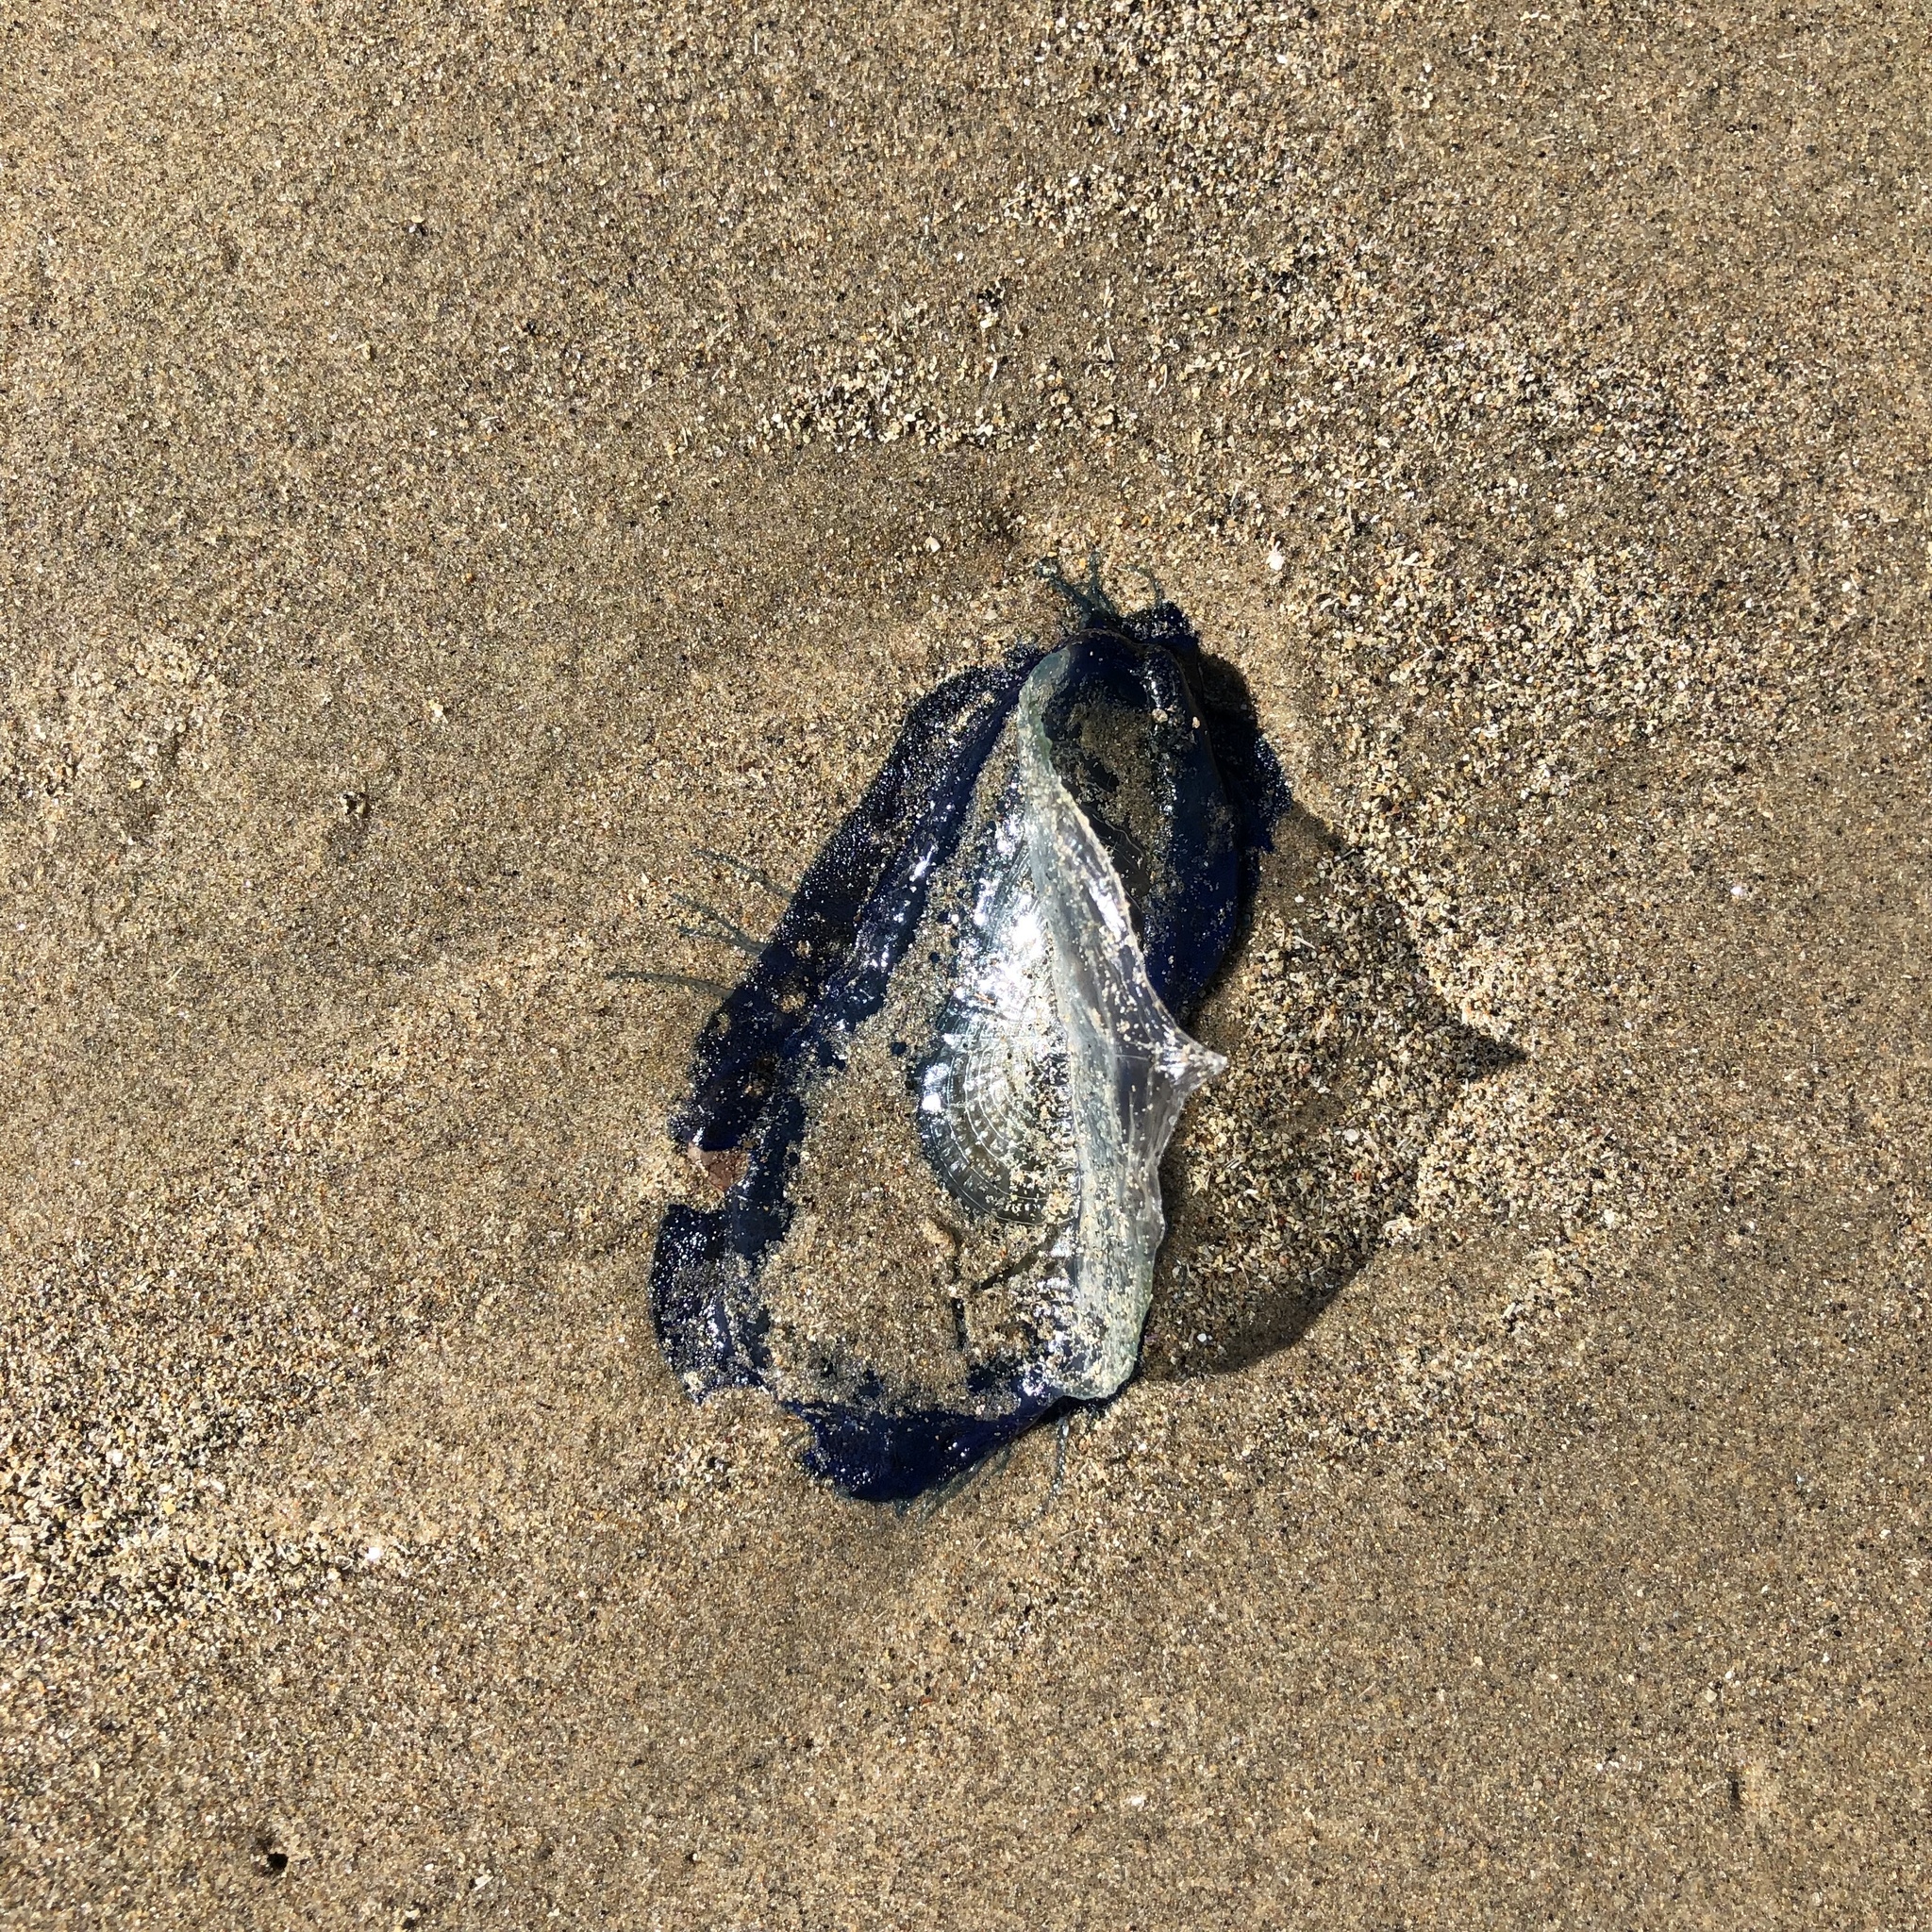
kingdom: Animalia
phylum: Cnidaria
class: Hydrozoa
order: Anthoathecata
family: Porpitidae
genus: Velella
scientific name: Velella velella
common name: By-the-wind-sailor
